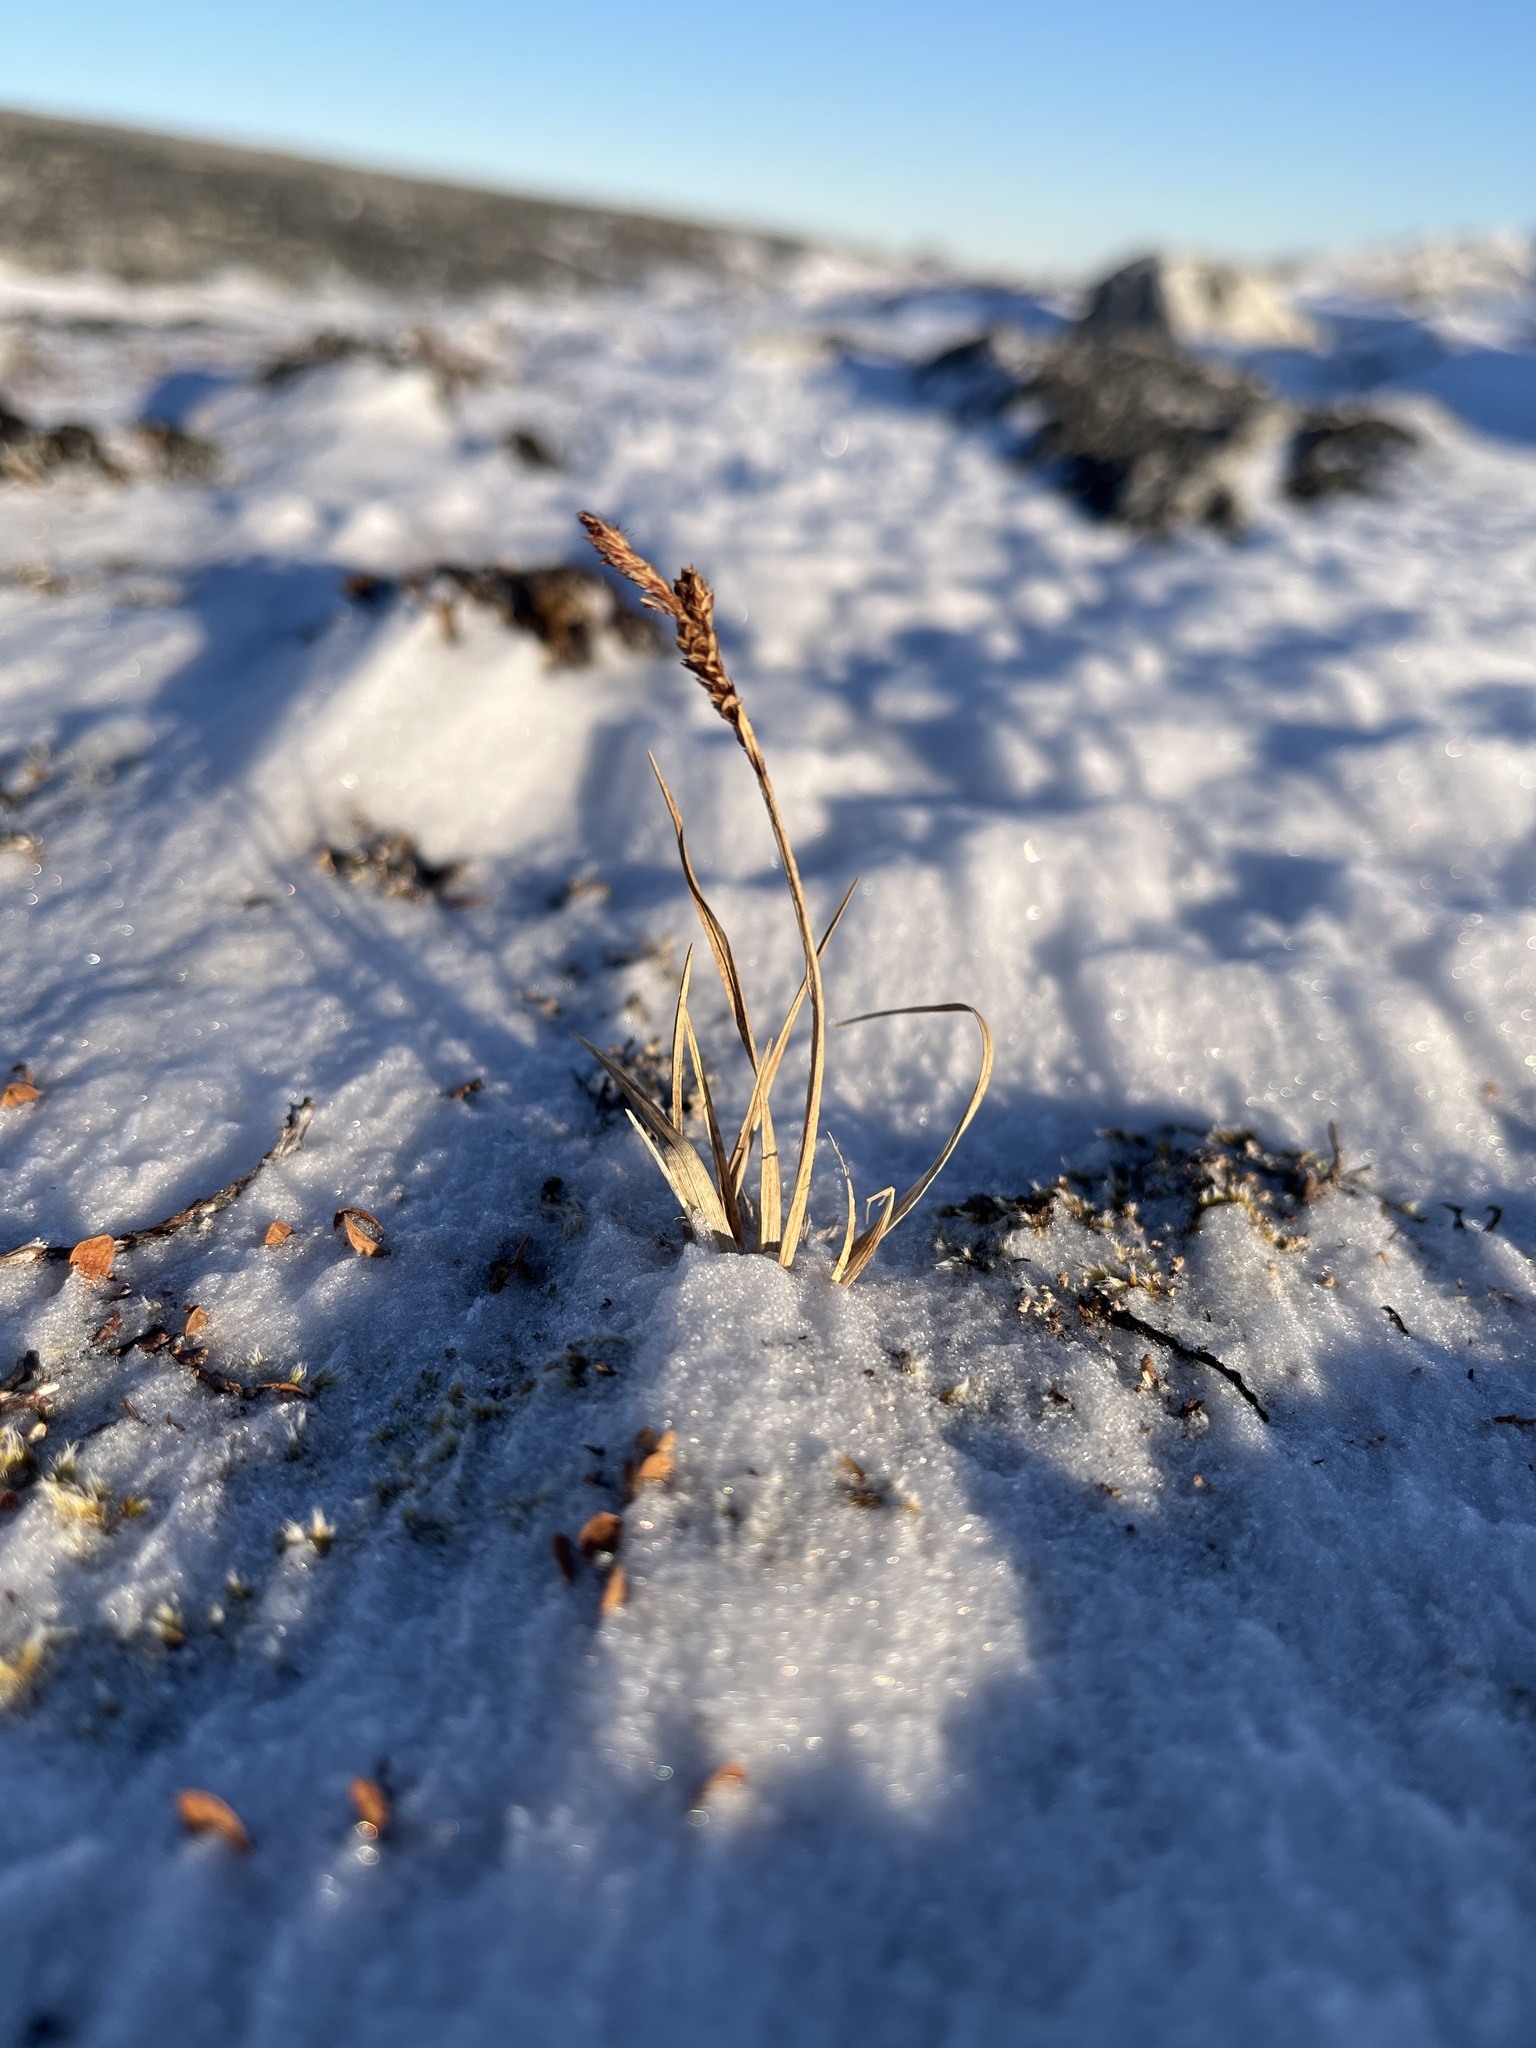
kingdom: Plantae
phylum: Tracheophyta
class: Liliopsida
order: Poales
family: Cyperaceae
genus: Carex
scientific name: Carex bigelowii
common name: Stiff sedge
